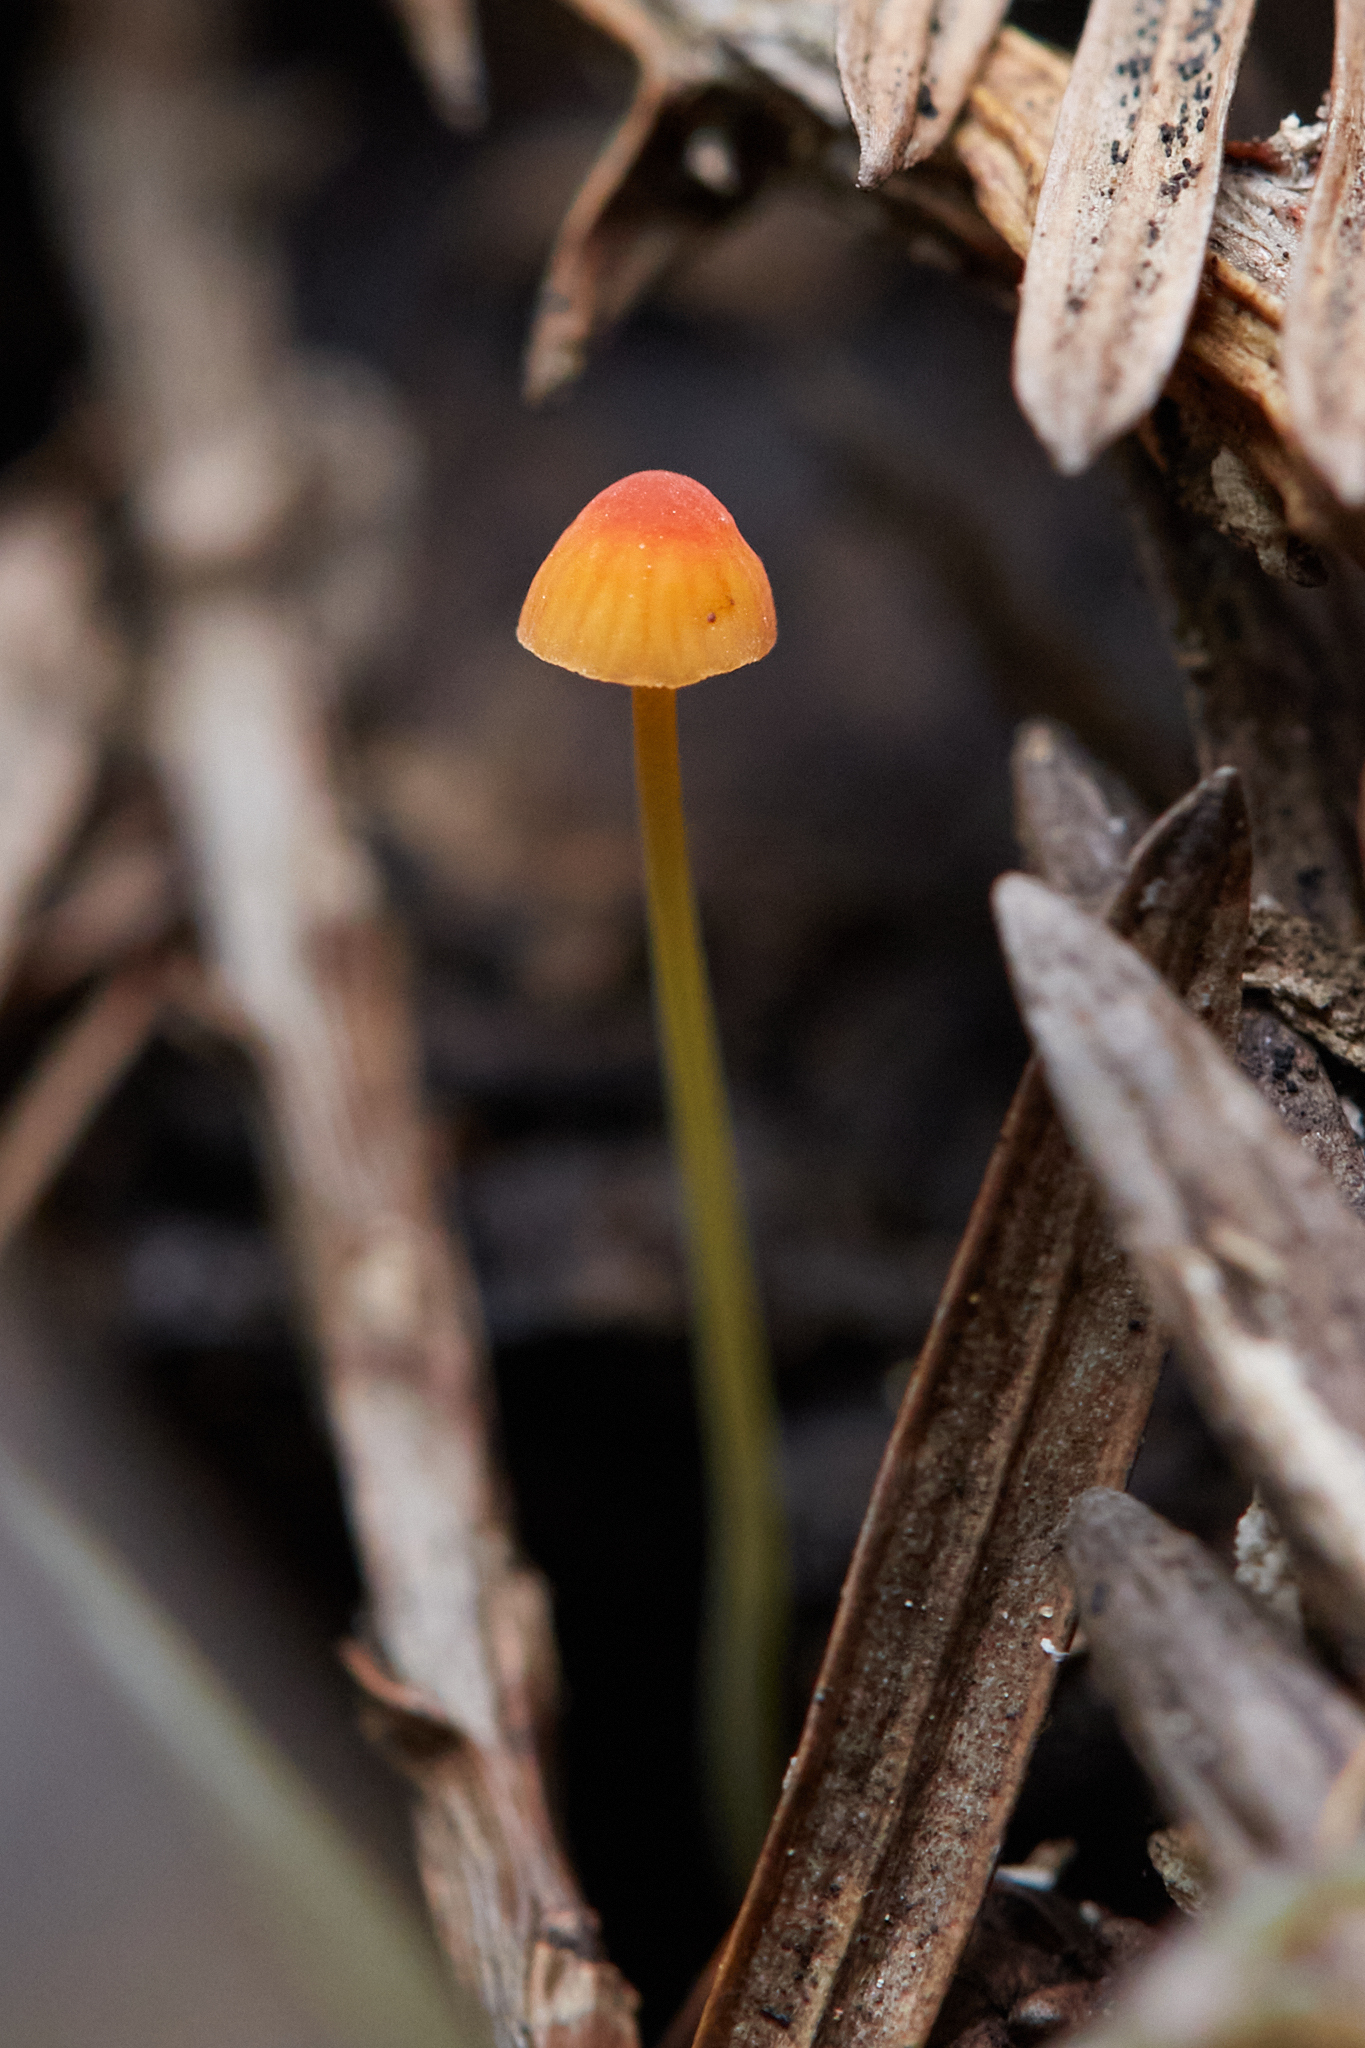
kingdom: Fungi
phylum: Basidiomycota
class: Agaricomycetes
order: Agaricales
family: Mycenaceae
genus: Mycena
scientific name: Mycena acicula
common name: Orange bonnet
